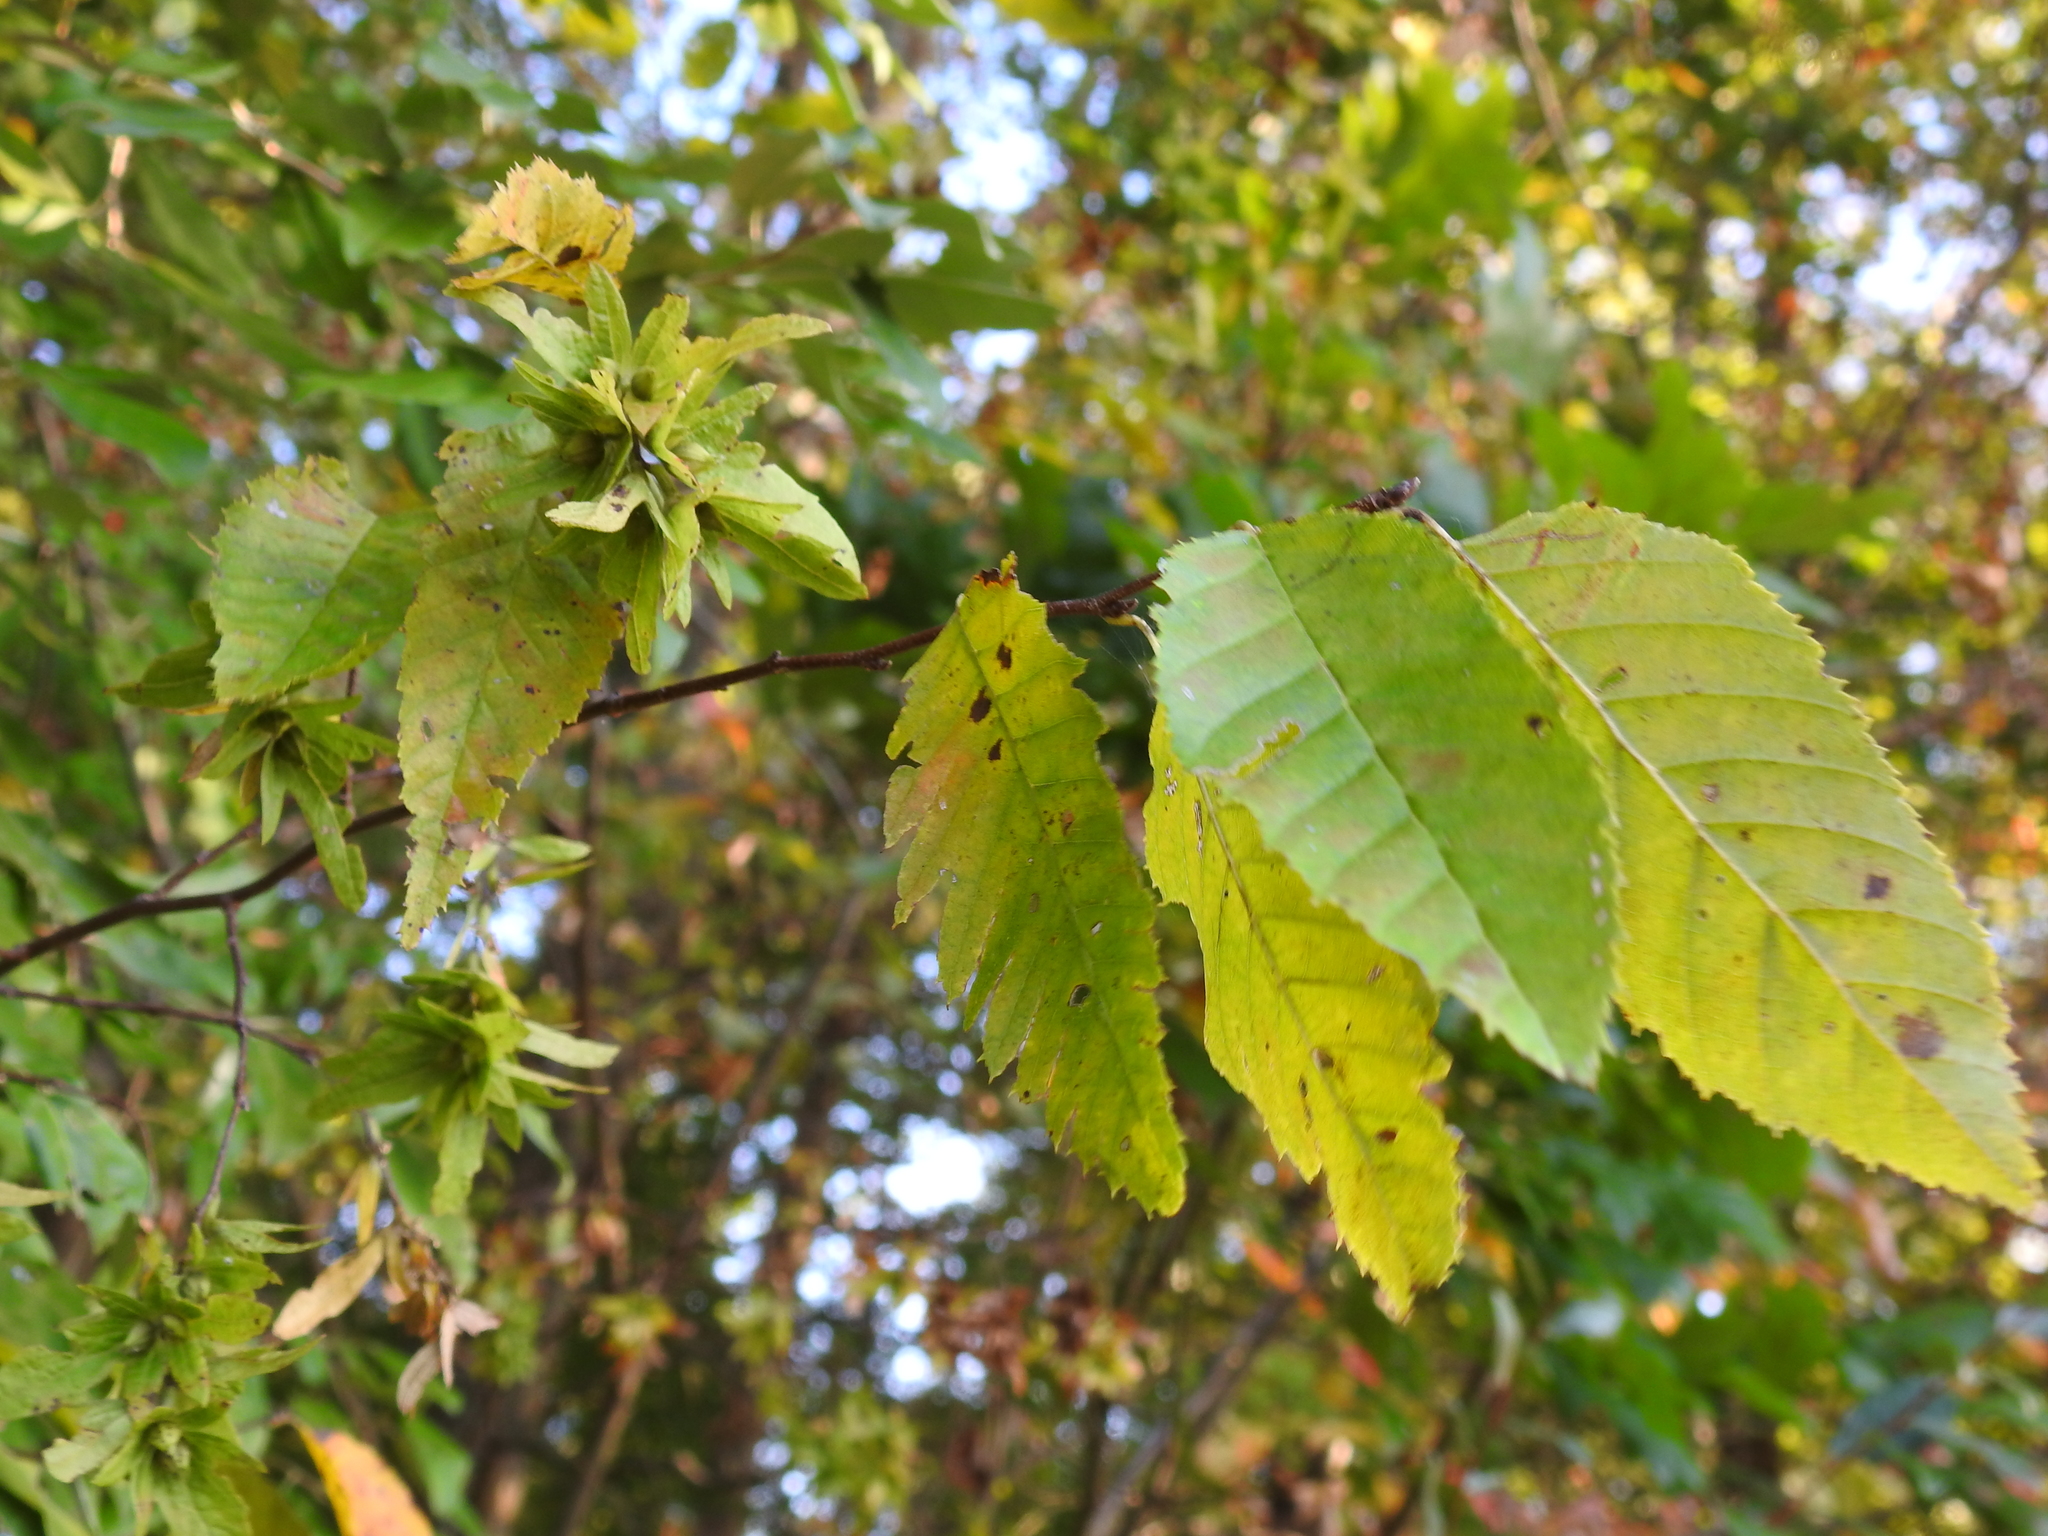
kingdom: Plantae
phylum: Tracheophyta
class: Magnoliopsida
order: Fagales
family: Betulaceae
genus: Carpinus
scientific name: Carpinus caroliniana
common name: American hornbeam
